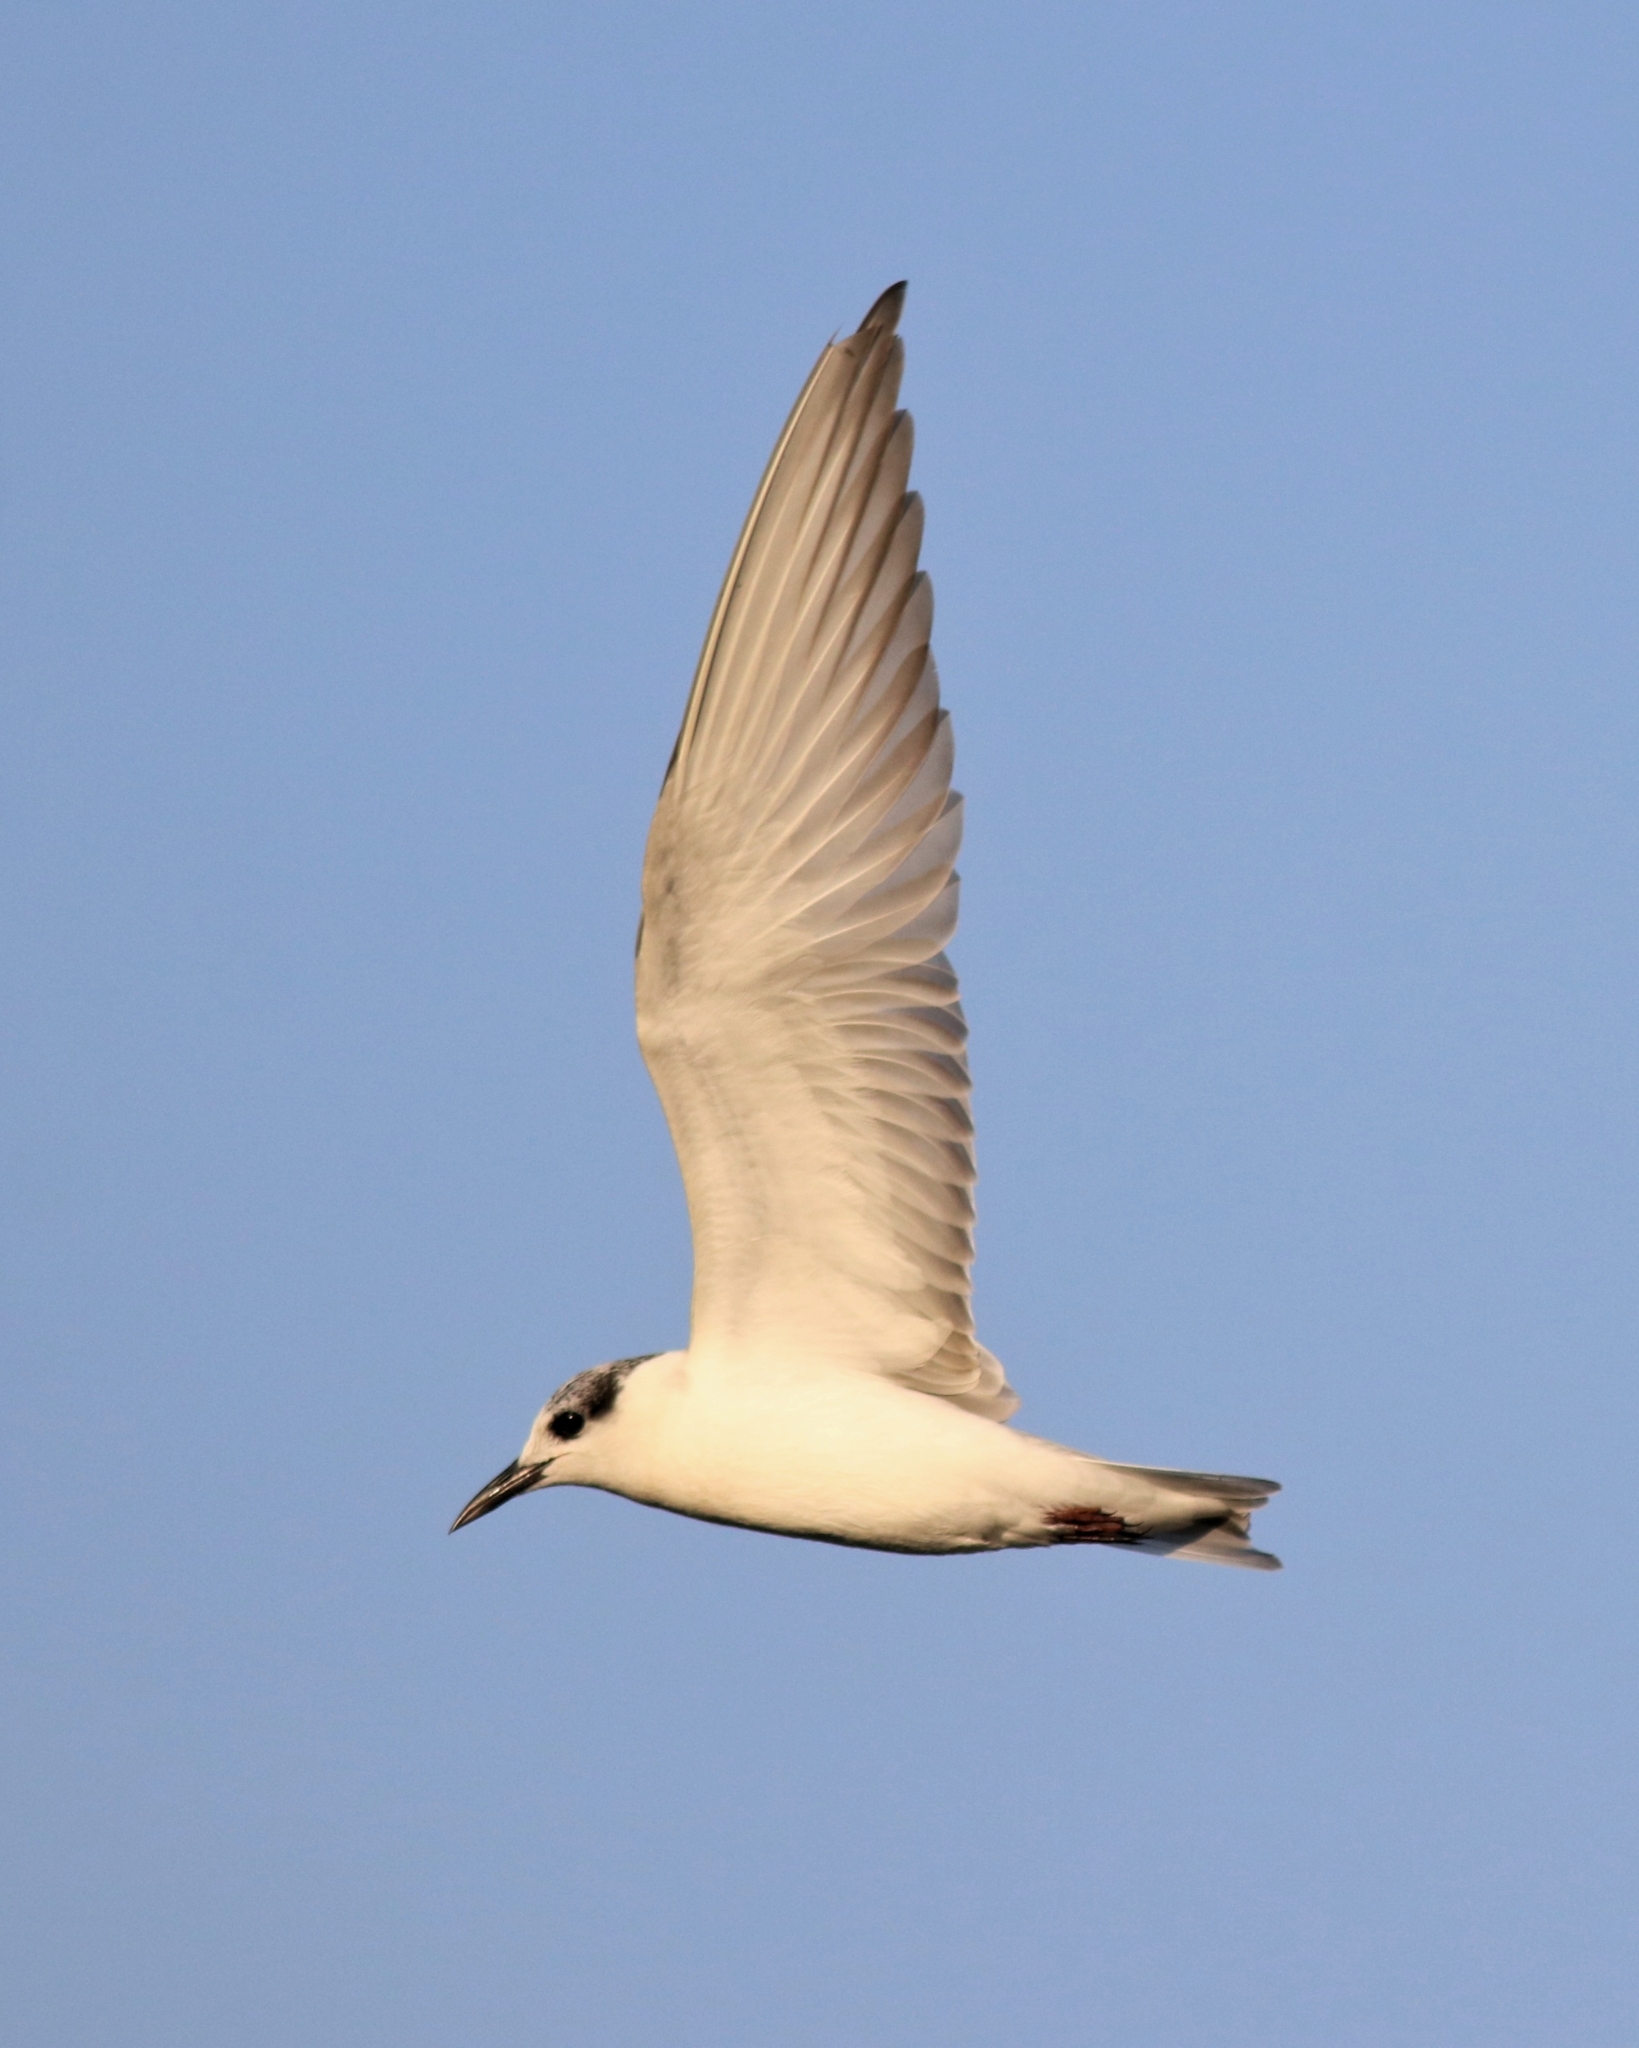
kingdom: Animalia
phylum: Chordata
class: Aves
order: Charadriiformes
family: Laridae
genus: Chlidonias
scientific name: Chlidonias hybrida
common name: Whiskered tern
